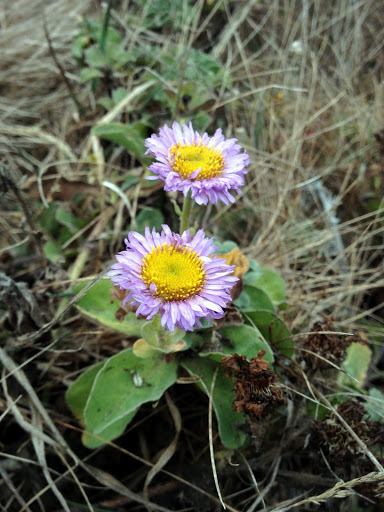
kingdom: Plantae
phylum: Tracheophyta
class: Magnoliopsida
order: Asterales
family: Asteraceae
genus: Erigeron
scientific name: Erigeron glaucus
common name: Seaside daisy
